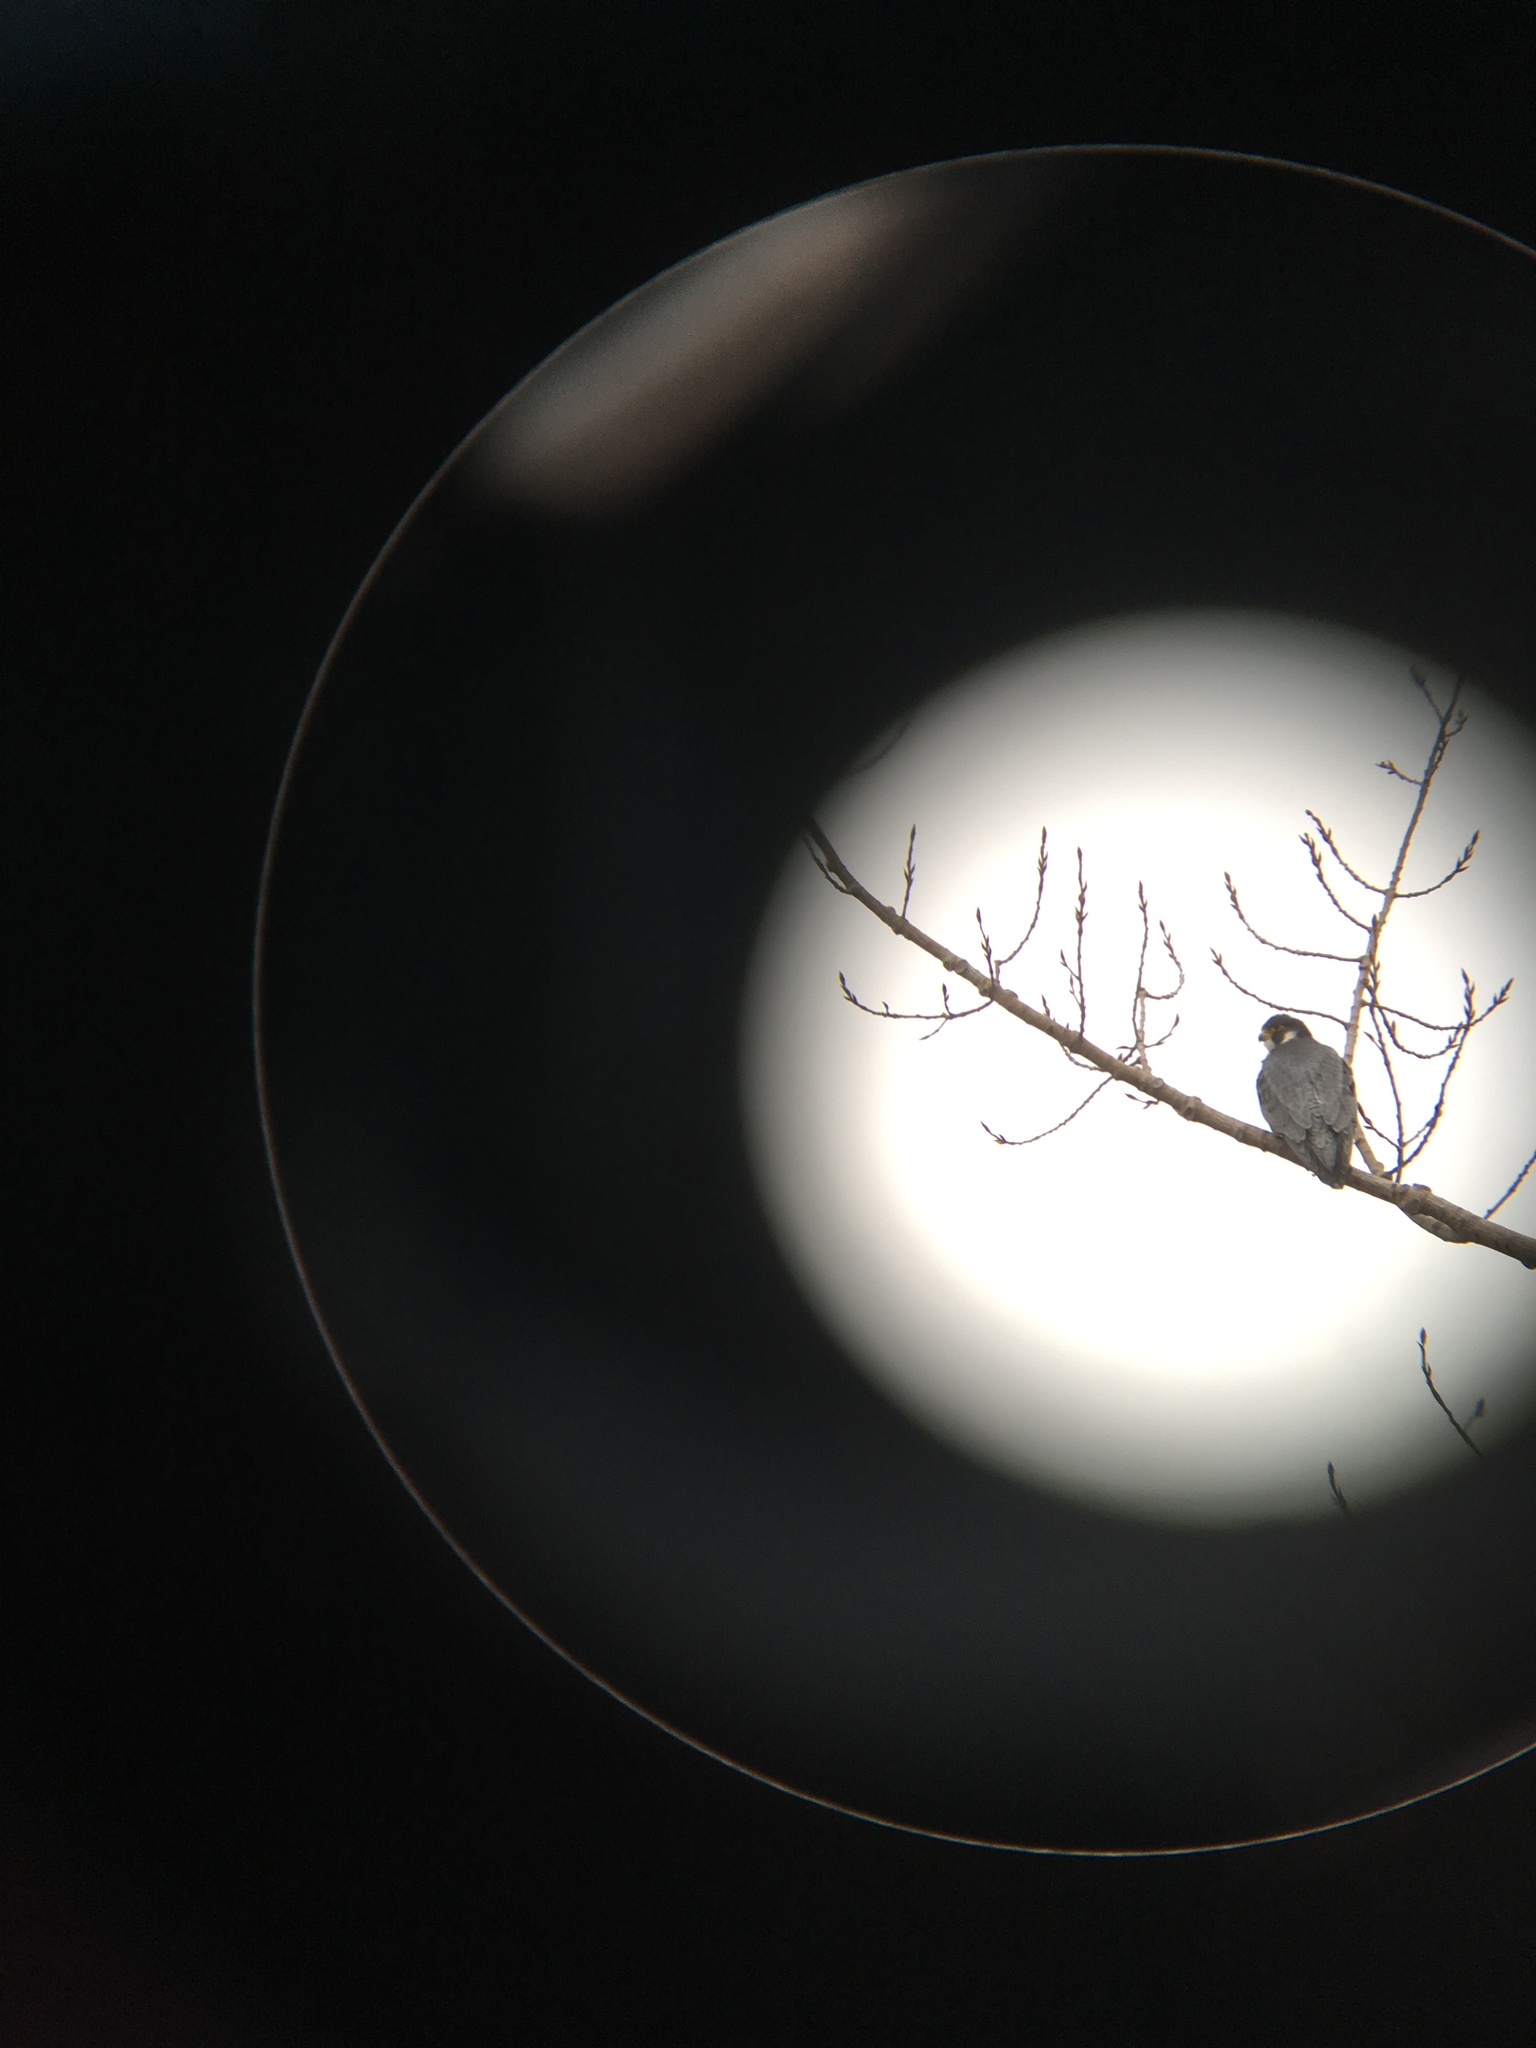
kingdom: Animalia
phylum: Chordata
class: Aves
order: Falconiformes
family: Falconidae
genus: Falco
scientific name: Falco peregrinus
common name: Peregrine falcon
